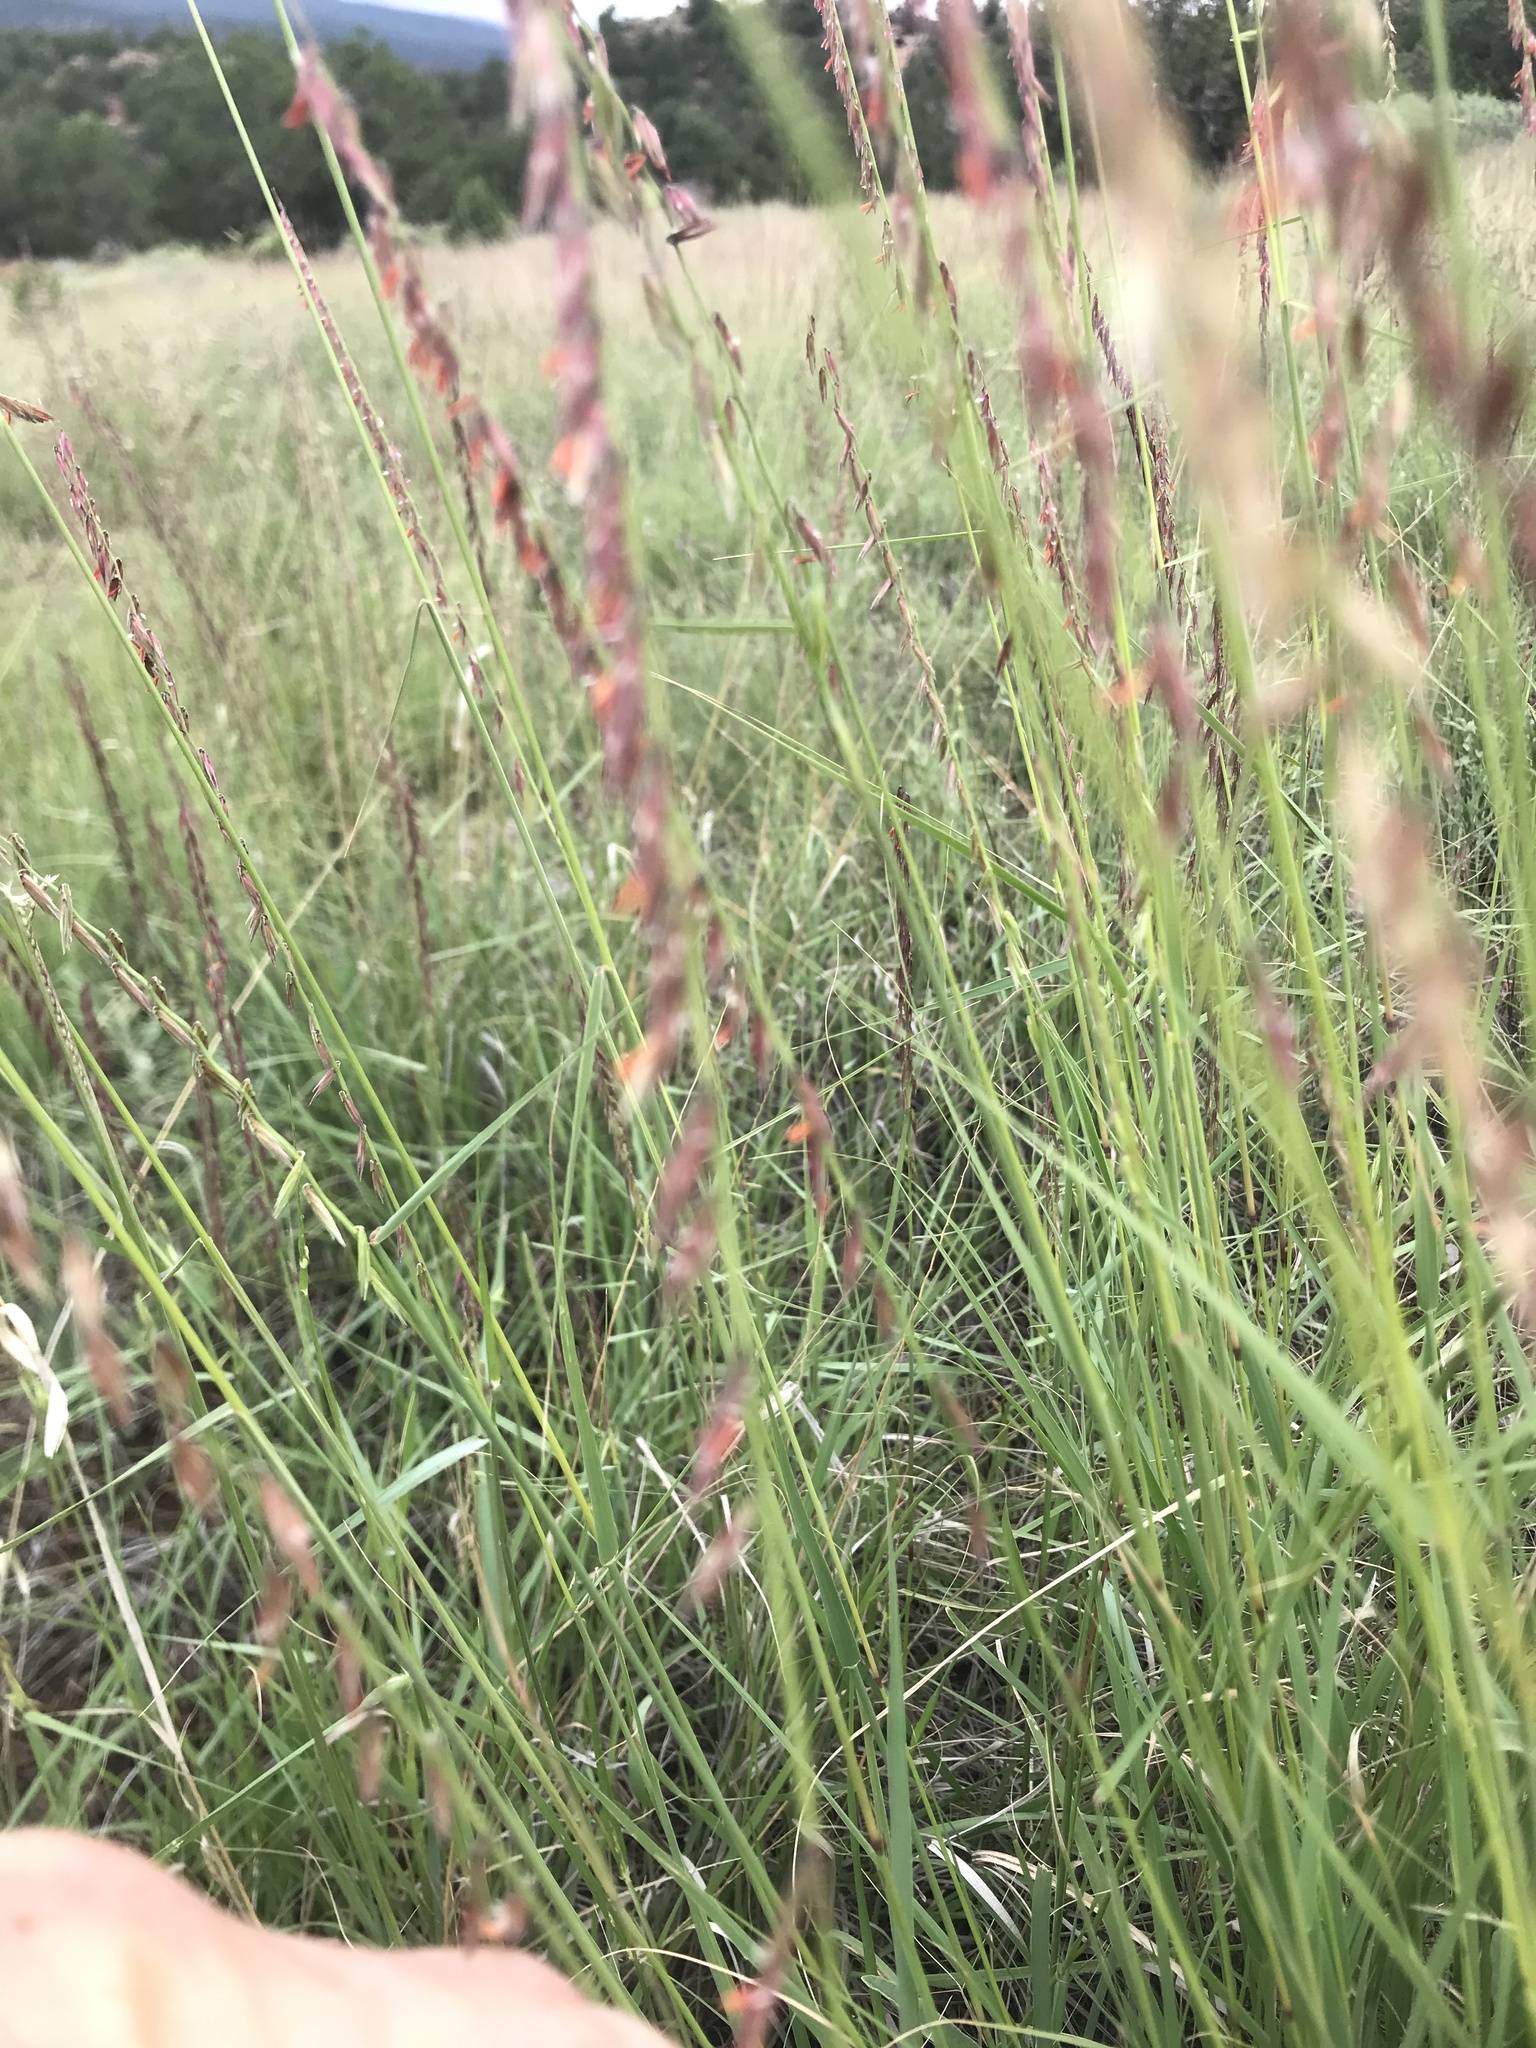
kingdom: Plantae
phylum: Tracheophyta
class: Liliopsida
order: Poales
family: Poaceae
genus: Bouteloua
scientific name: Bouteloua curtipendula
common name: Side-oats grama
